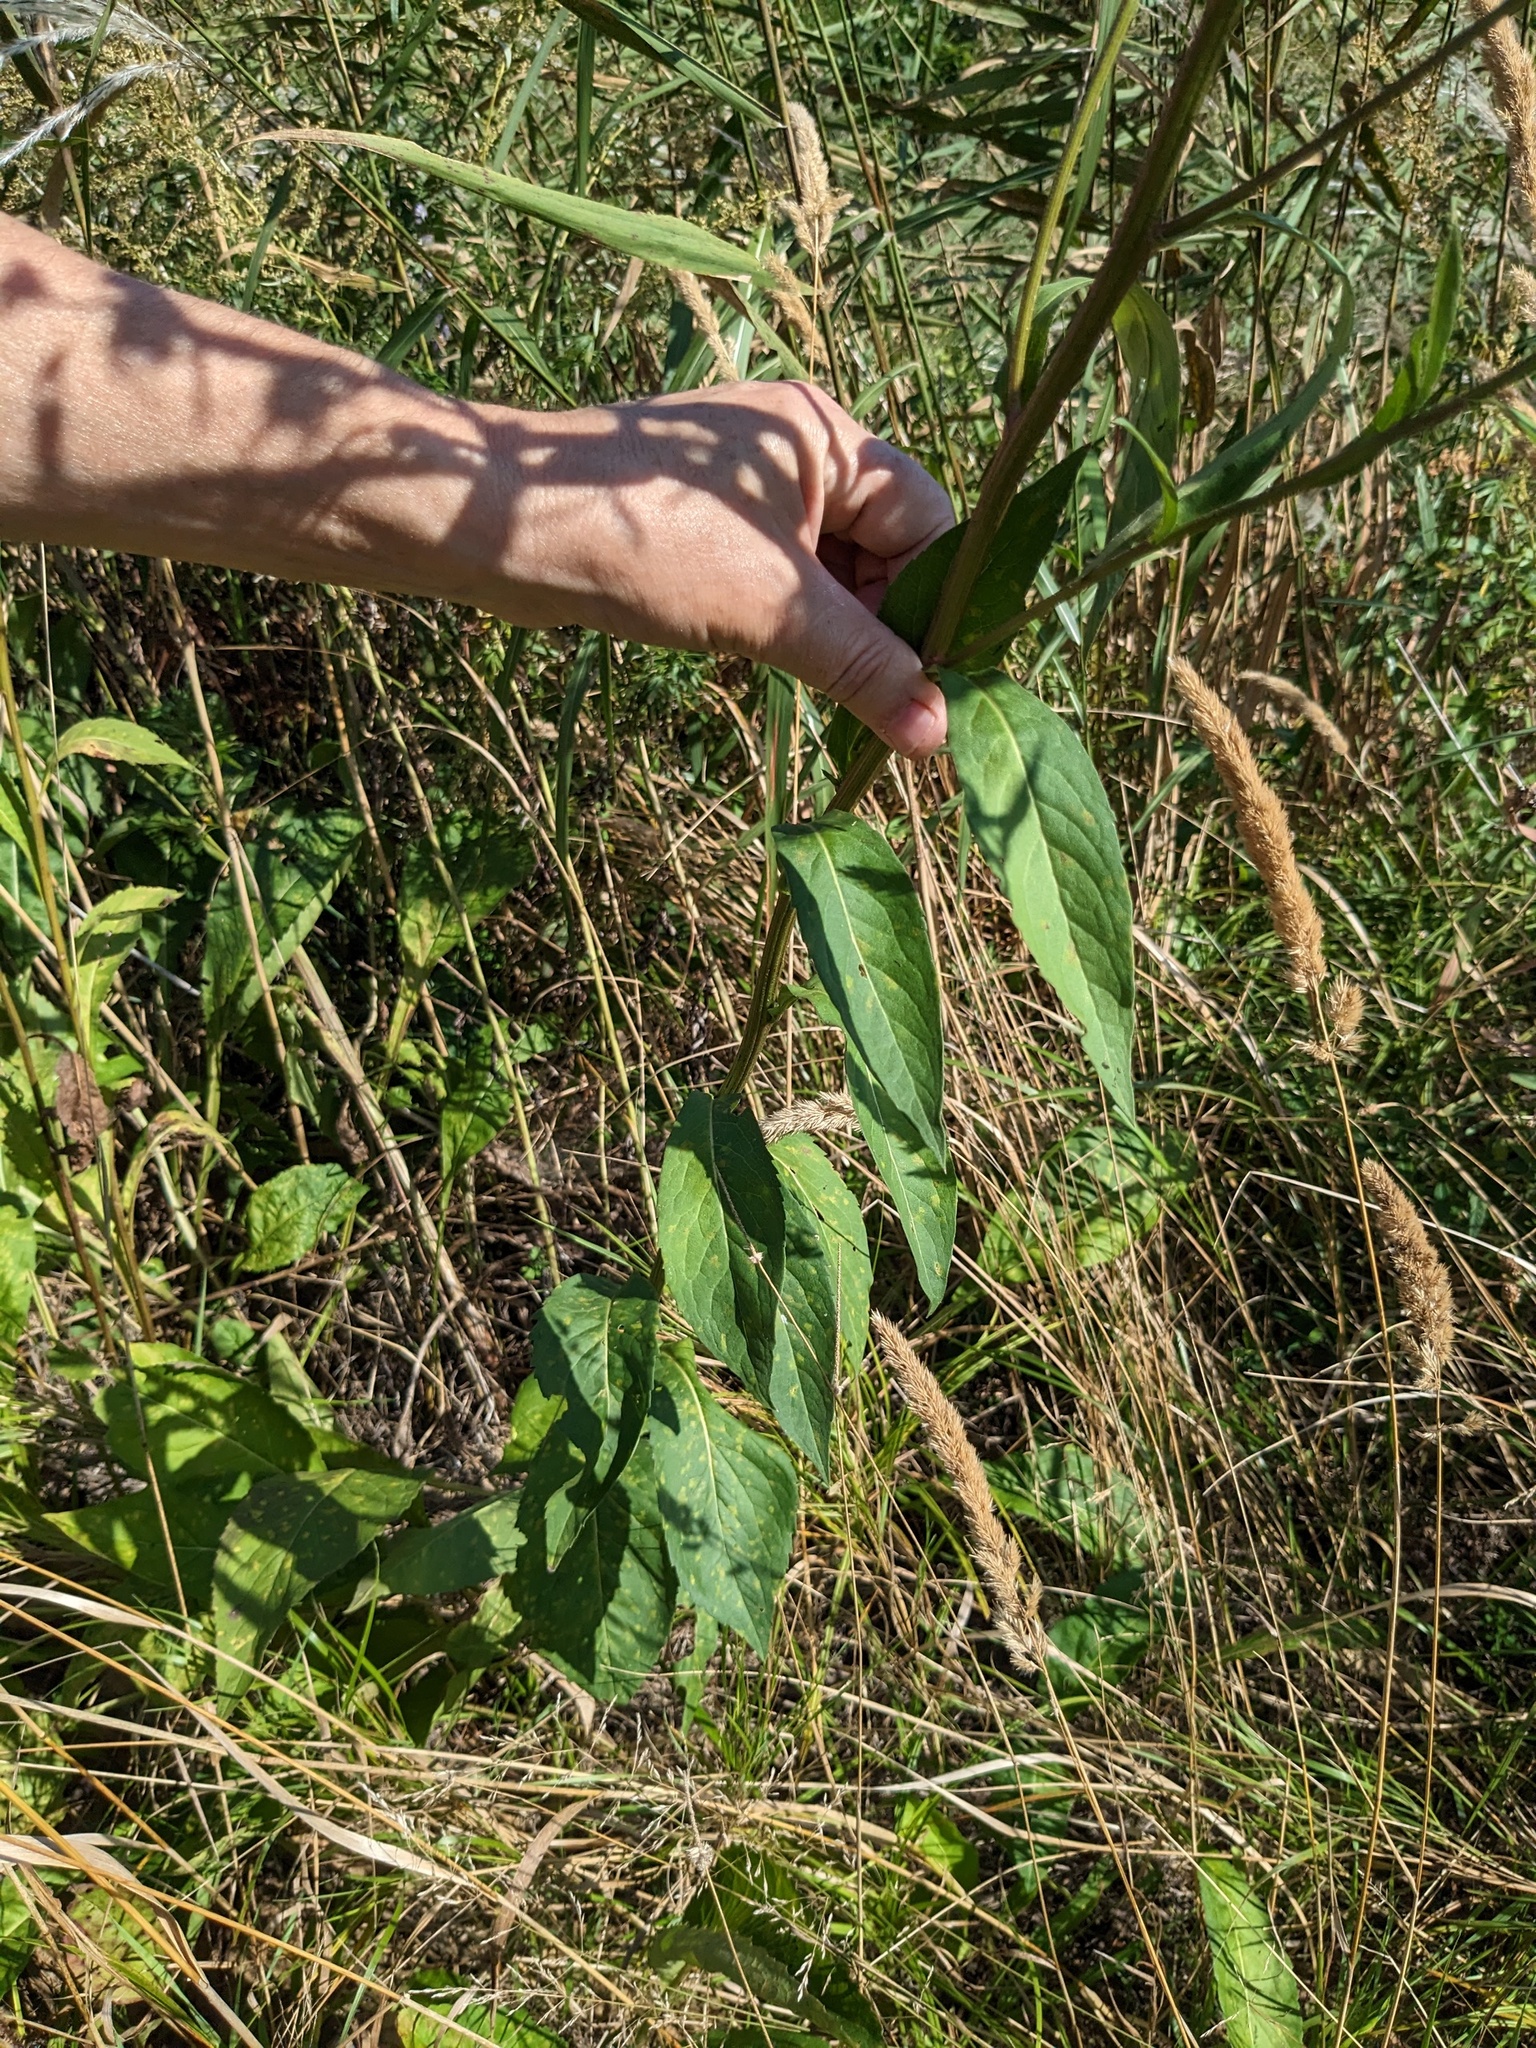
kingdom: Plantae
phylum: Tracheophyta
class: Magnoliopsida
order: Asterales
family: Asteraceae
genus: Aster
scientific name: Aster tataricus
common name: Tatarian aster
